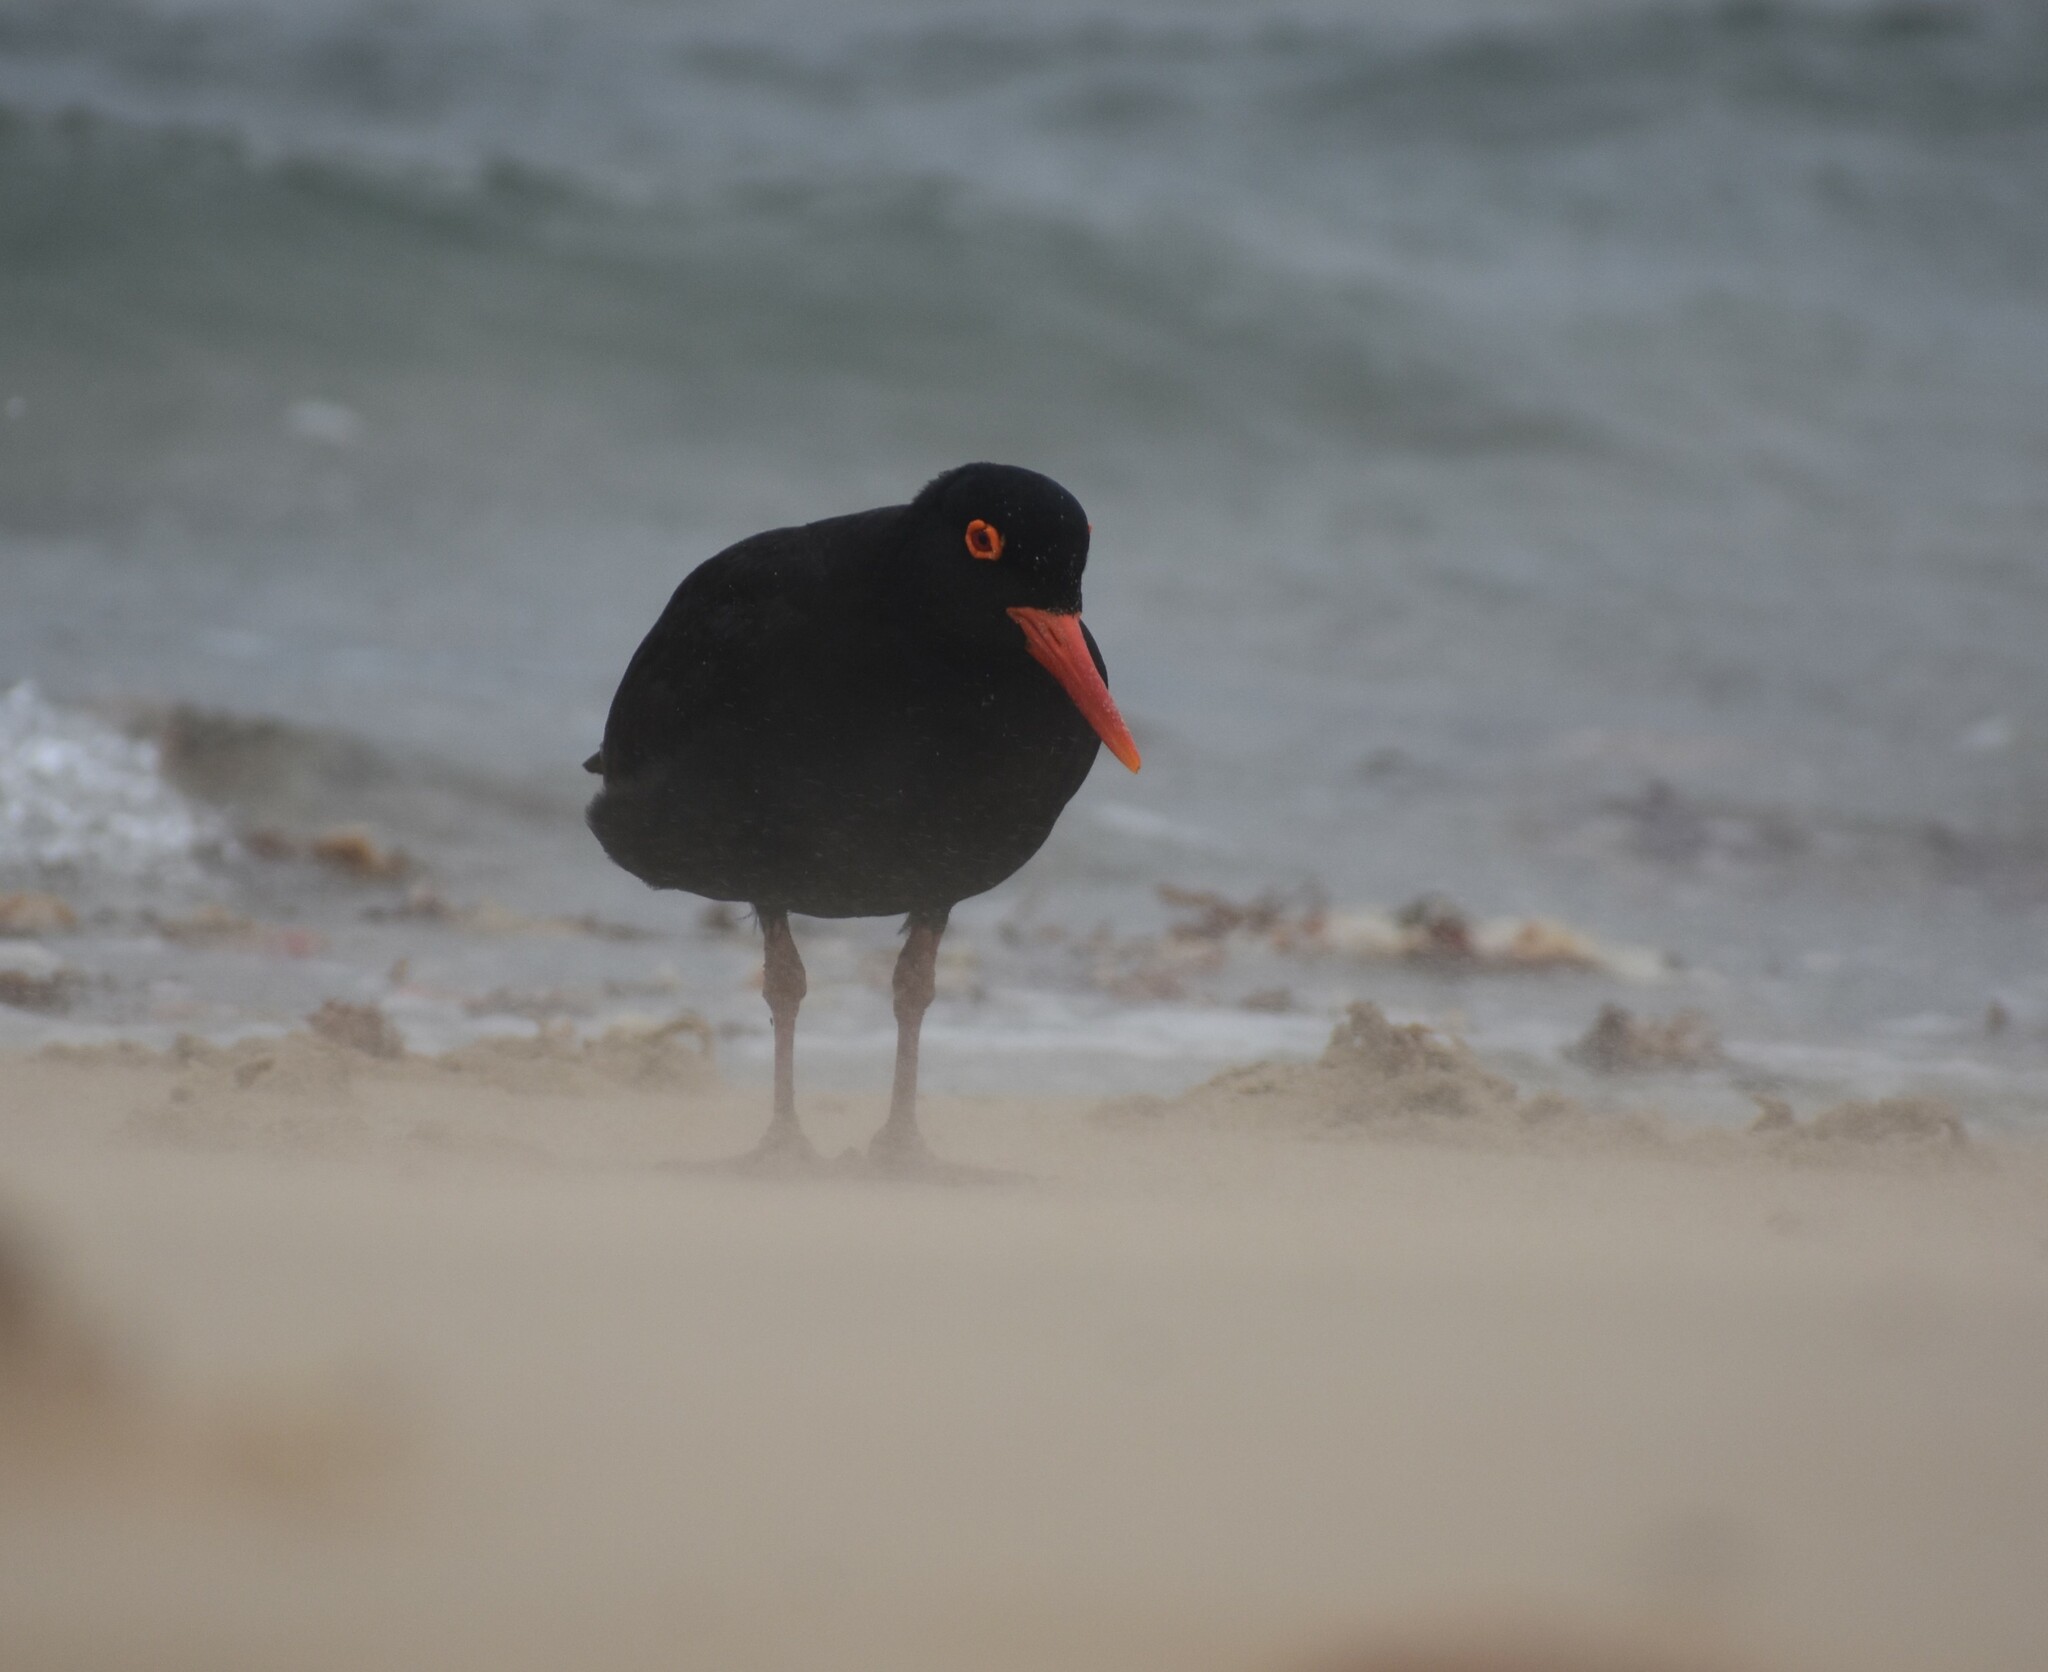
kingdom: Animalia
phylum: Chordata
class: Aves
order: Charadriiformes
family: Haematopodidae
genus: Haematopus
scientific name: Haematopus moquini
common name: African oystercatcher
